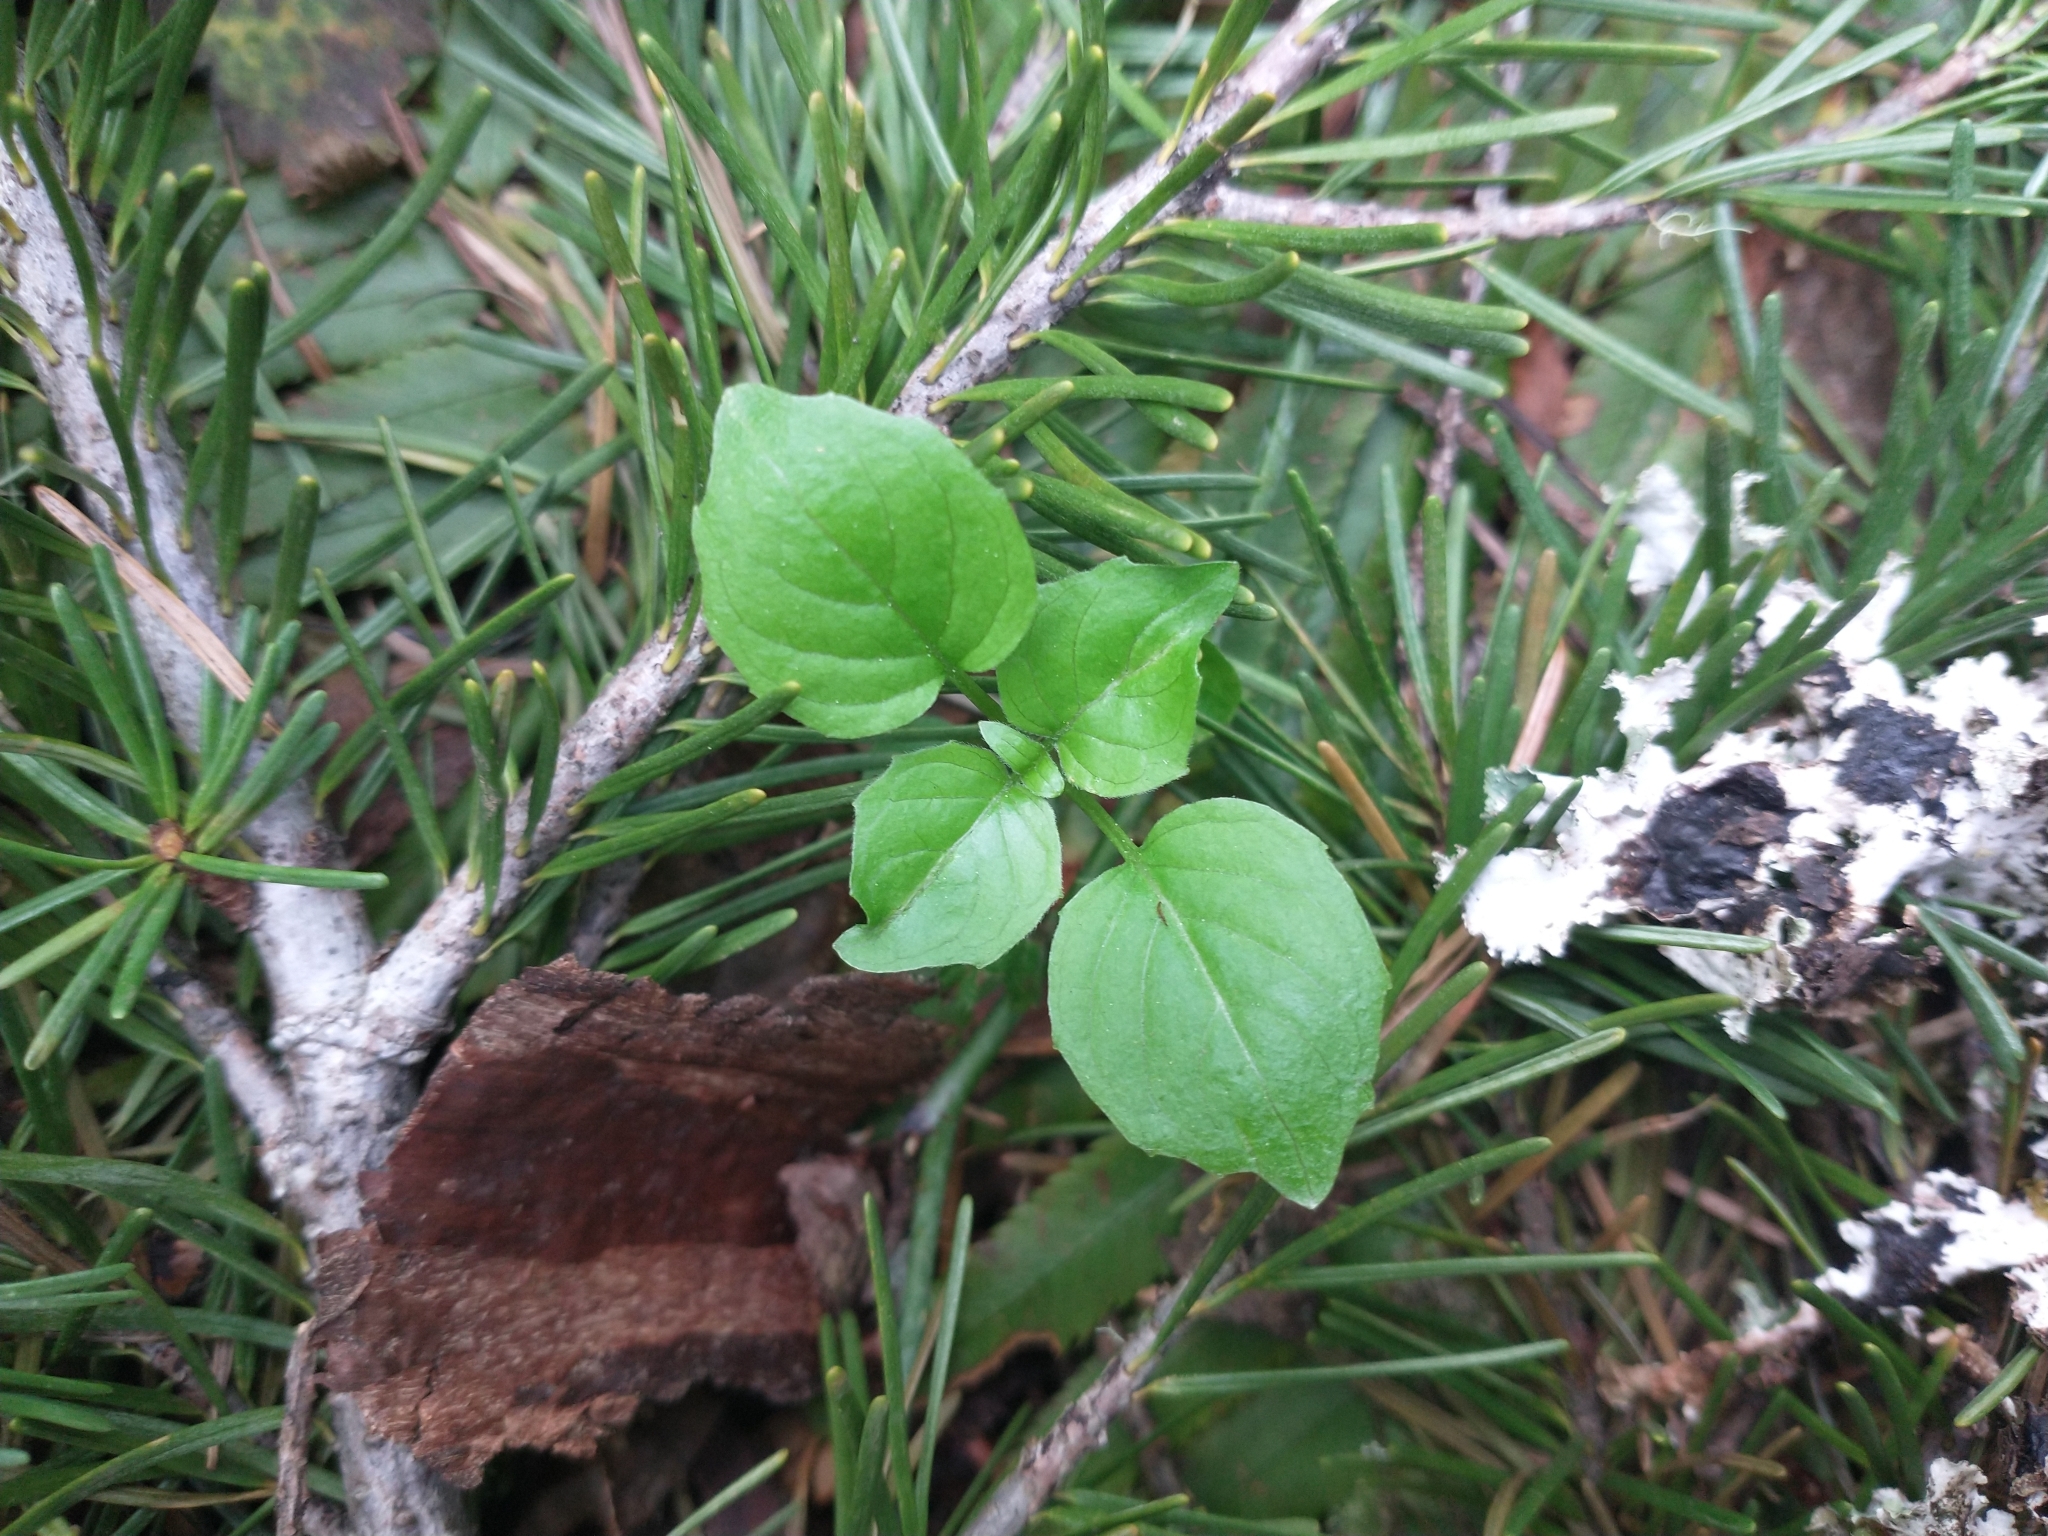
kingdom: Plantae
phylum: Tracheophyta
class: Magnoliopsida
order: Myrtales
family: Onagraceae
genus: Circaea
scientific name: Circaea alpina
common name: Alpine enchanter's-nightshade
